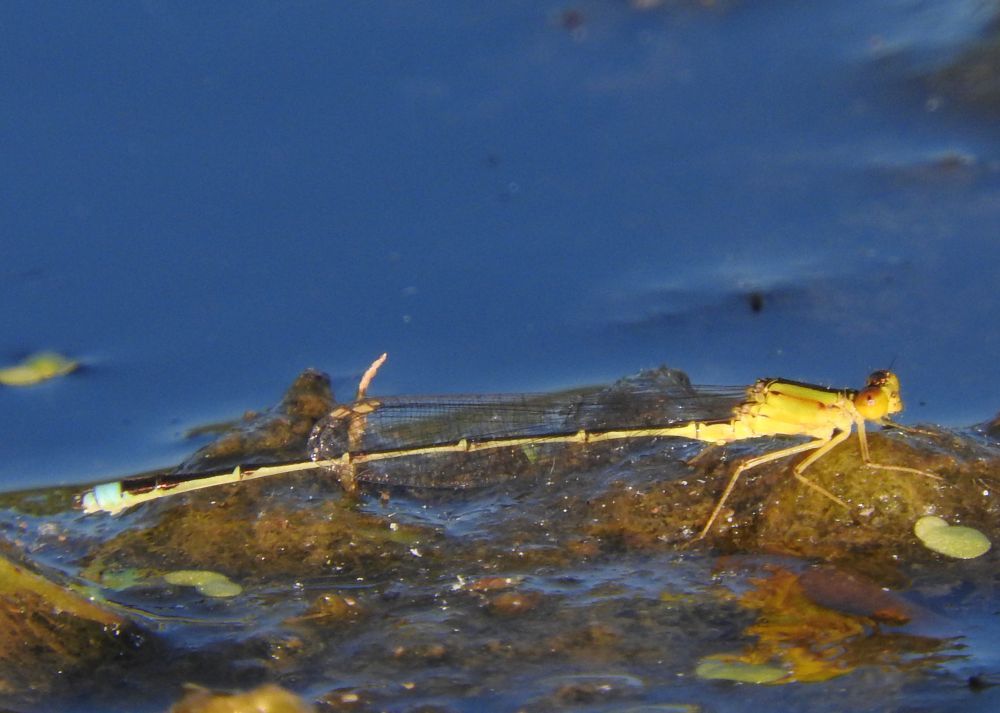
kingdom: Animalia
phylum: Arthropoda
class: Insecta
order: Odonata
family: Coenagrionidae
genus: Enallagma
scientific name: Enallagma vesperum
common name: Vesper bluet
